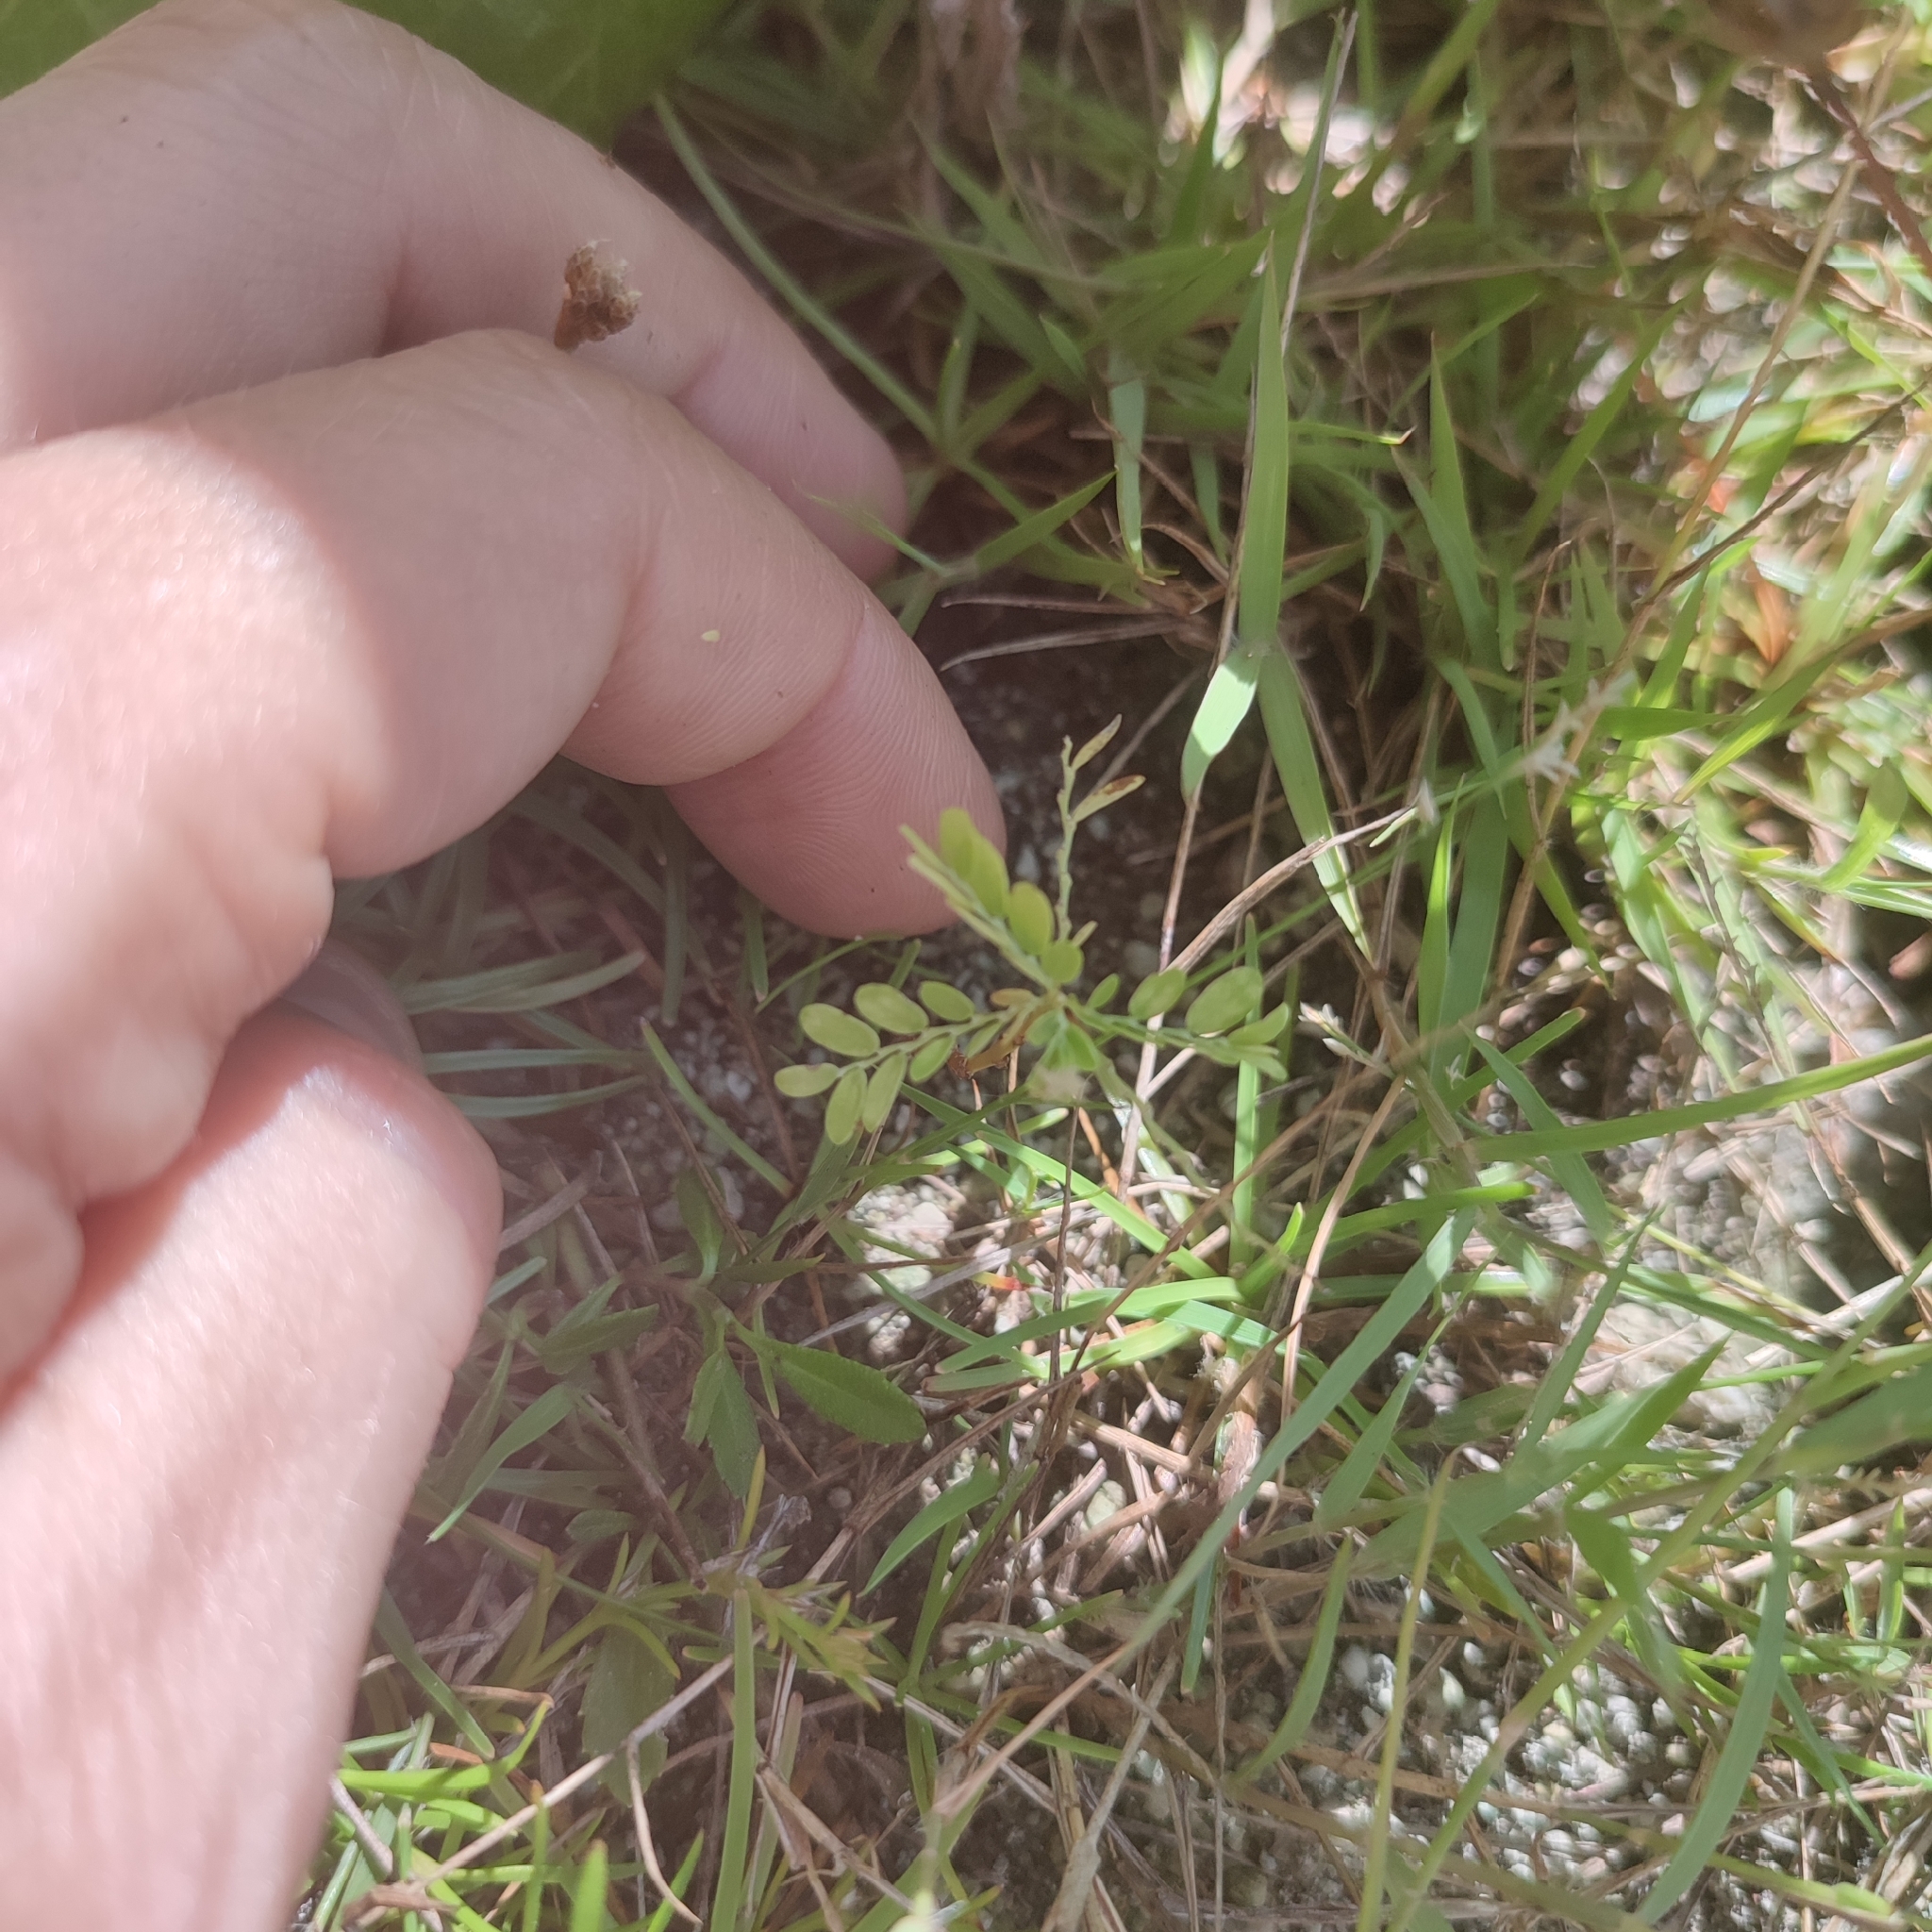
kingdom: Plantae
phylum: Tracheophyta
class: Magnoliopsida
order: Malpighiales
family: Phyllanthaceae
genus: Phyllanthus
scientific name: Phyllanthus amarus
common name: Carry me seed
